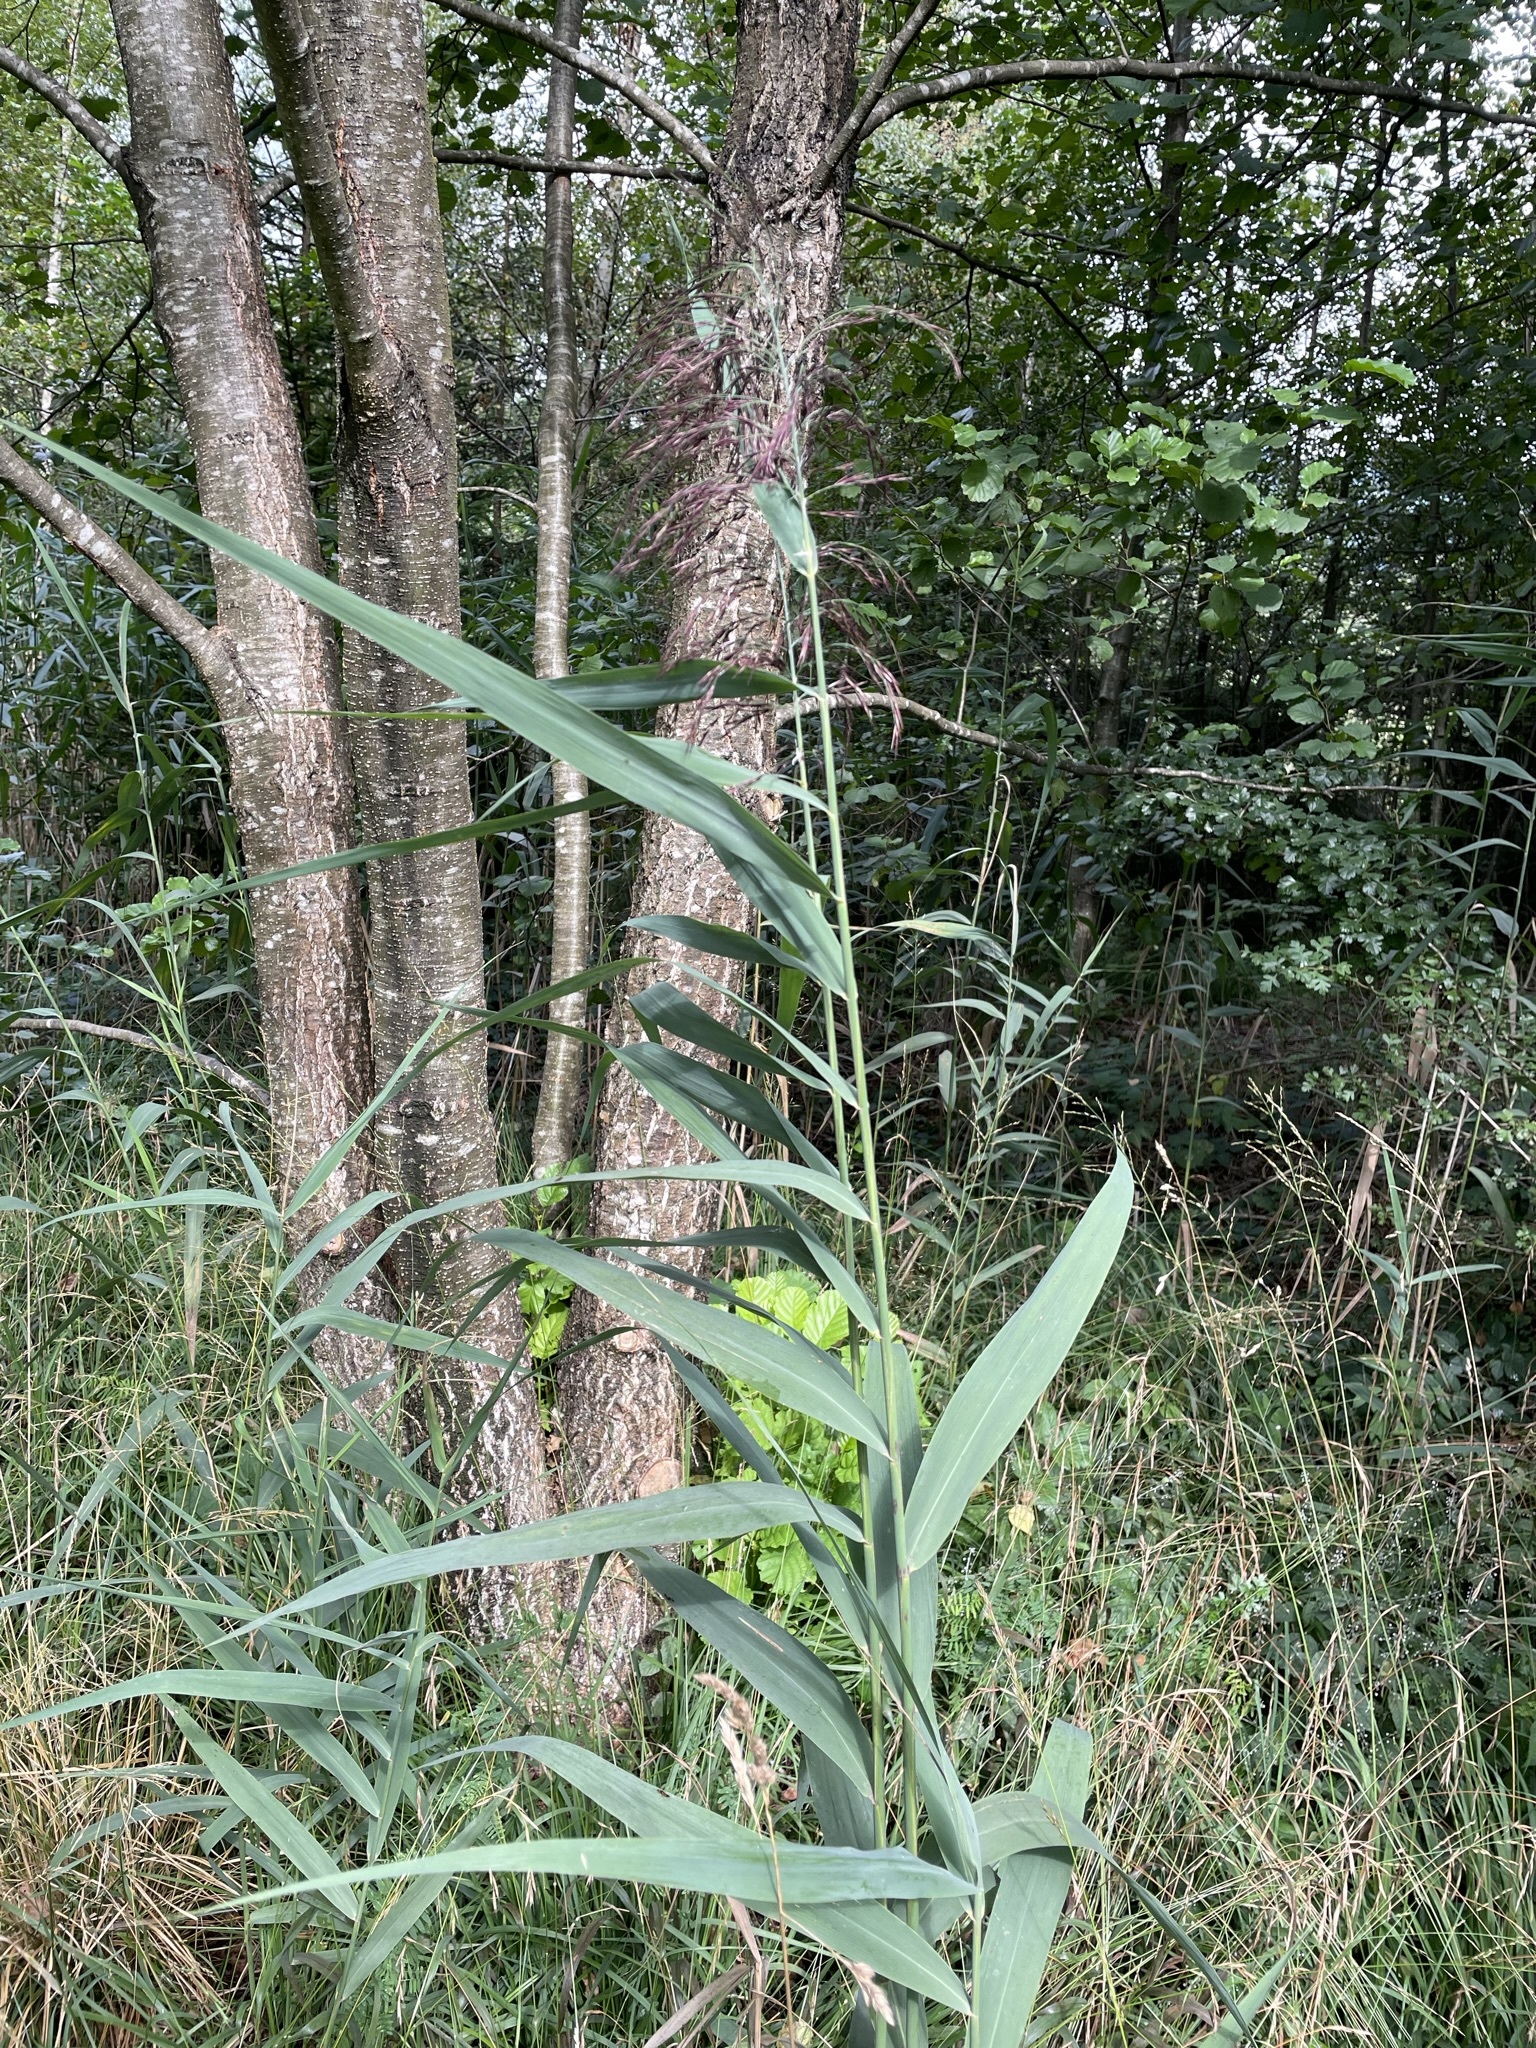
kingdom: Plantae
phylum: Tracheophyta
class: Liliopsida
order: Poales
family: Poaceae
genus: Phragmites
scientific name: Phragmites australis
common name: Common reed
